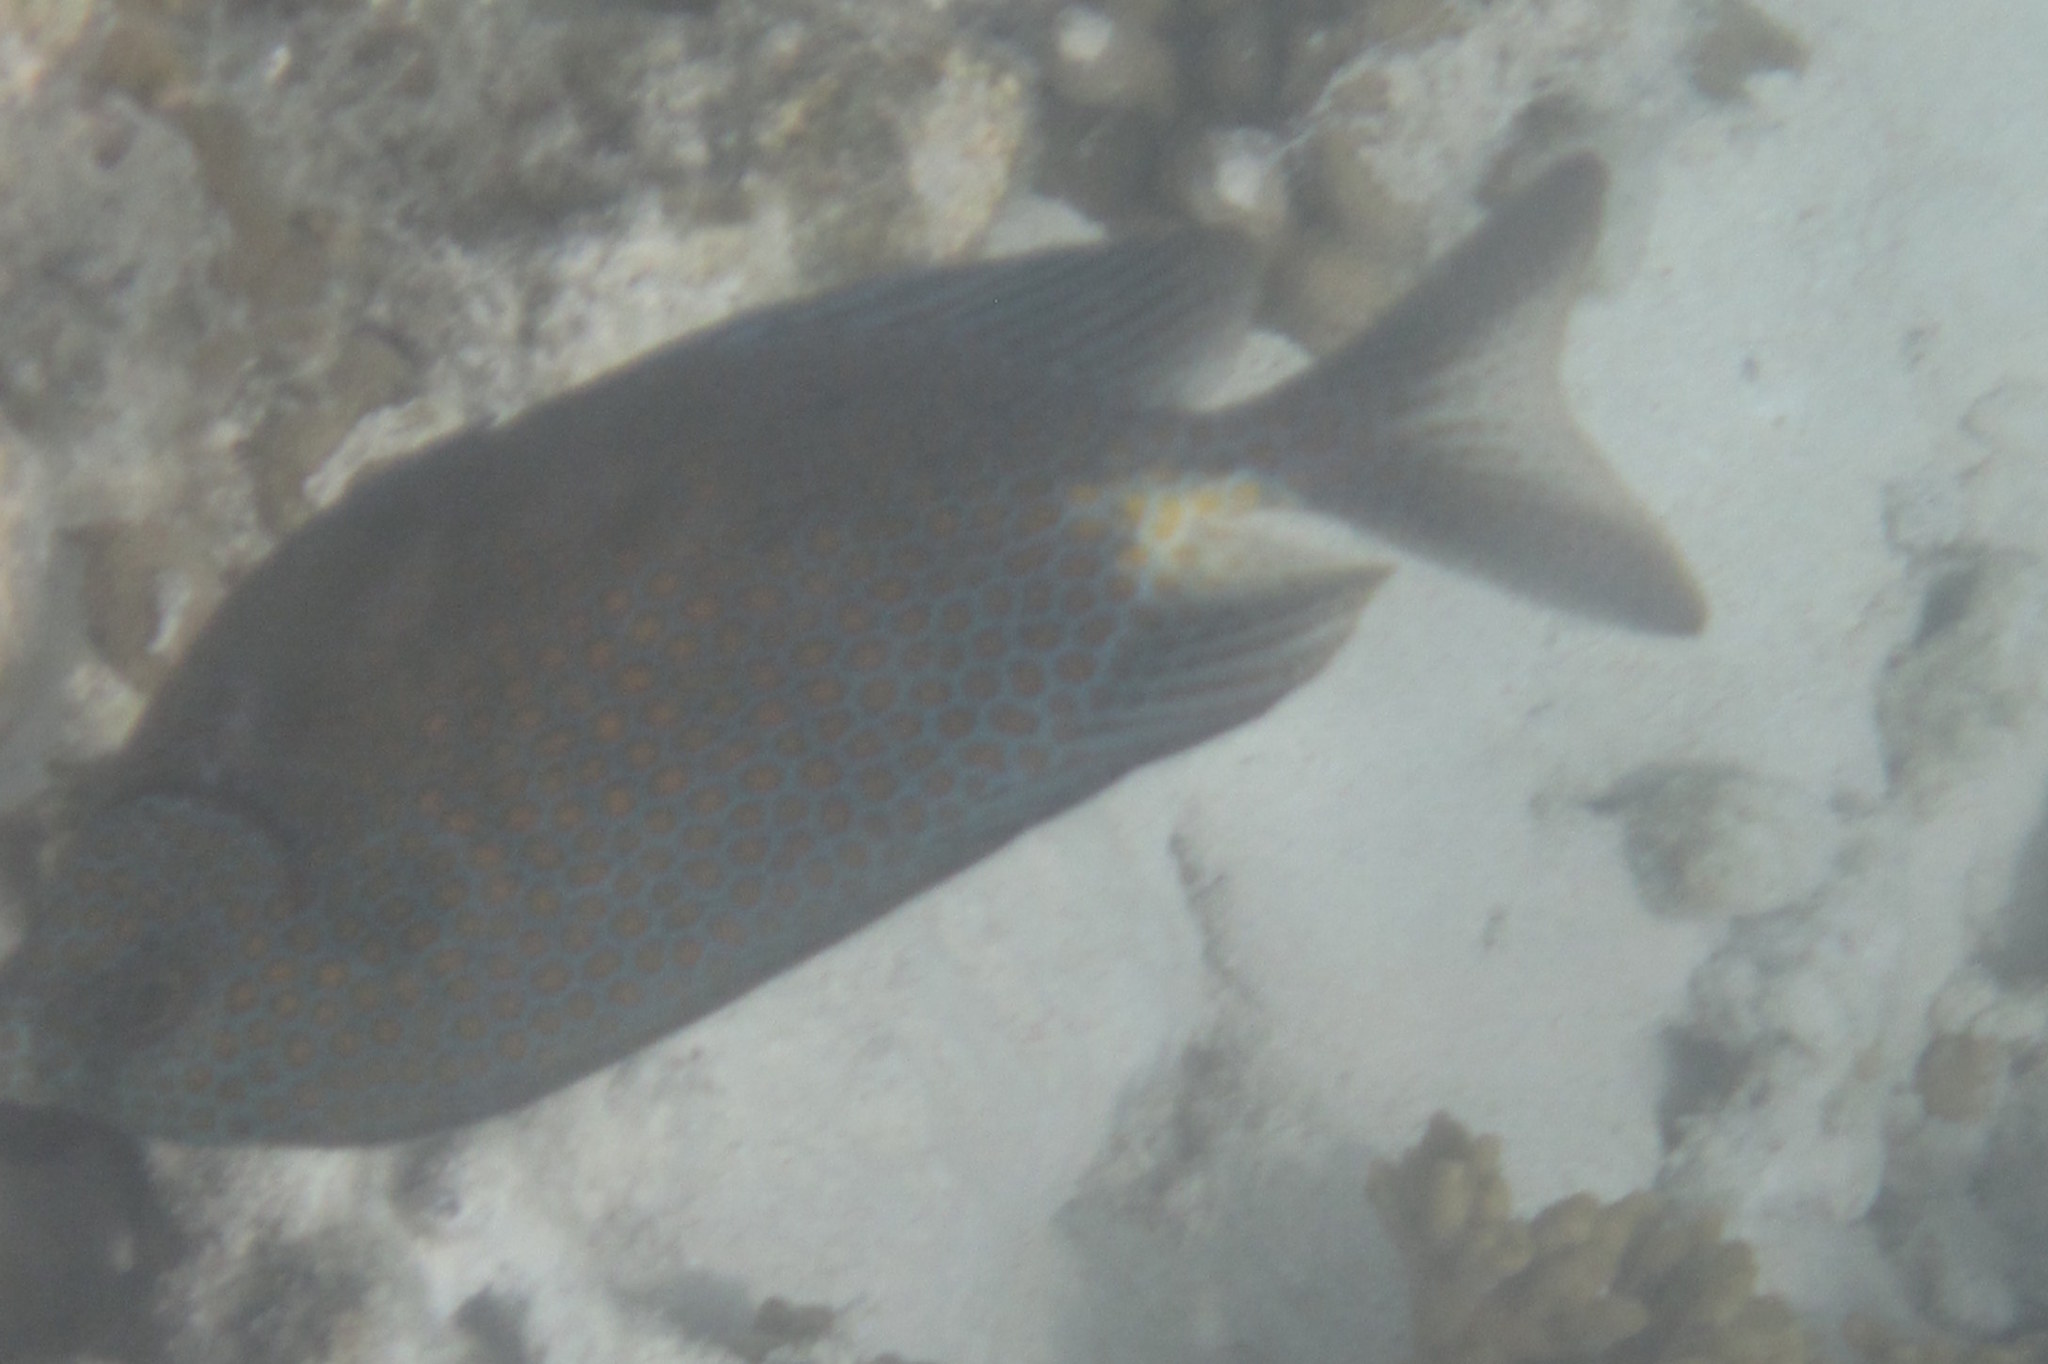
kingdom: Animalia
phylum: Chordata
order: Perciformes
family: Siganidae
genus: Siganus
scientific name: Siganus punctatus
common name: Gold-spotted rabbitfish
